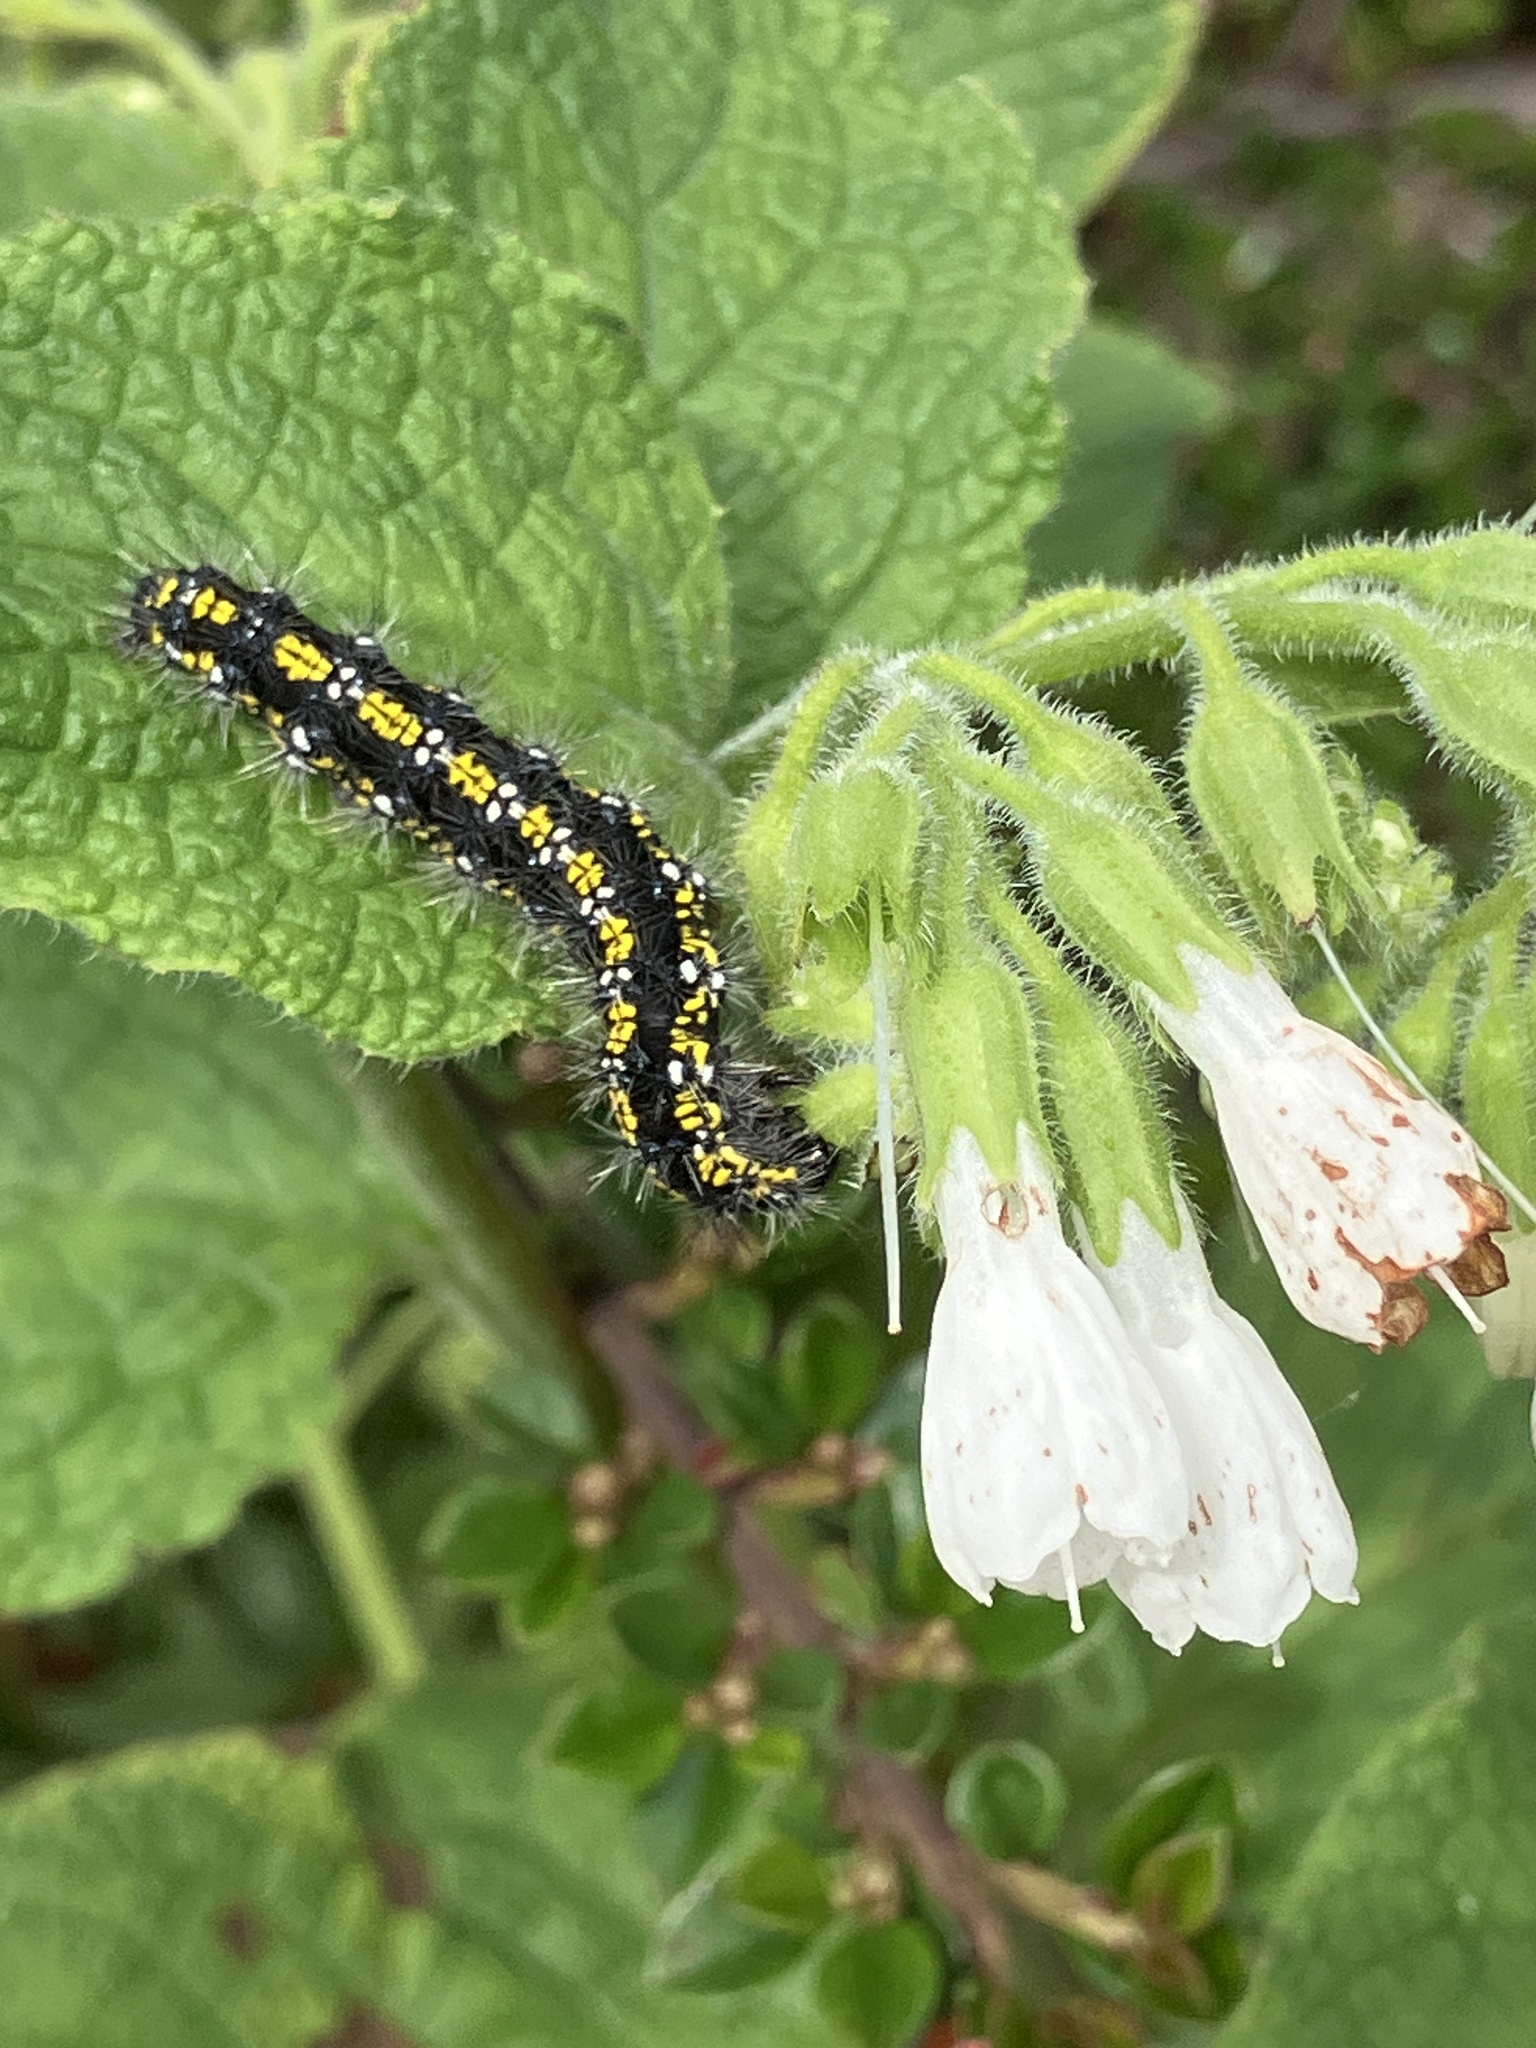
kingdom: Animalia
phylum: Arthropoda
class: Insecta
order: Lepidoptera
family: Erebidae
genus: Callimorpha
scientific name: Callimorpha dominula
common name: Scarlet tiger
